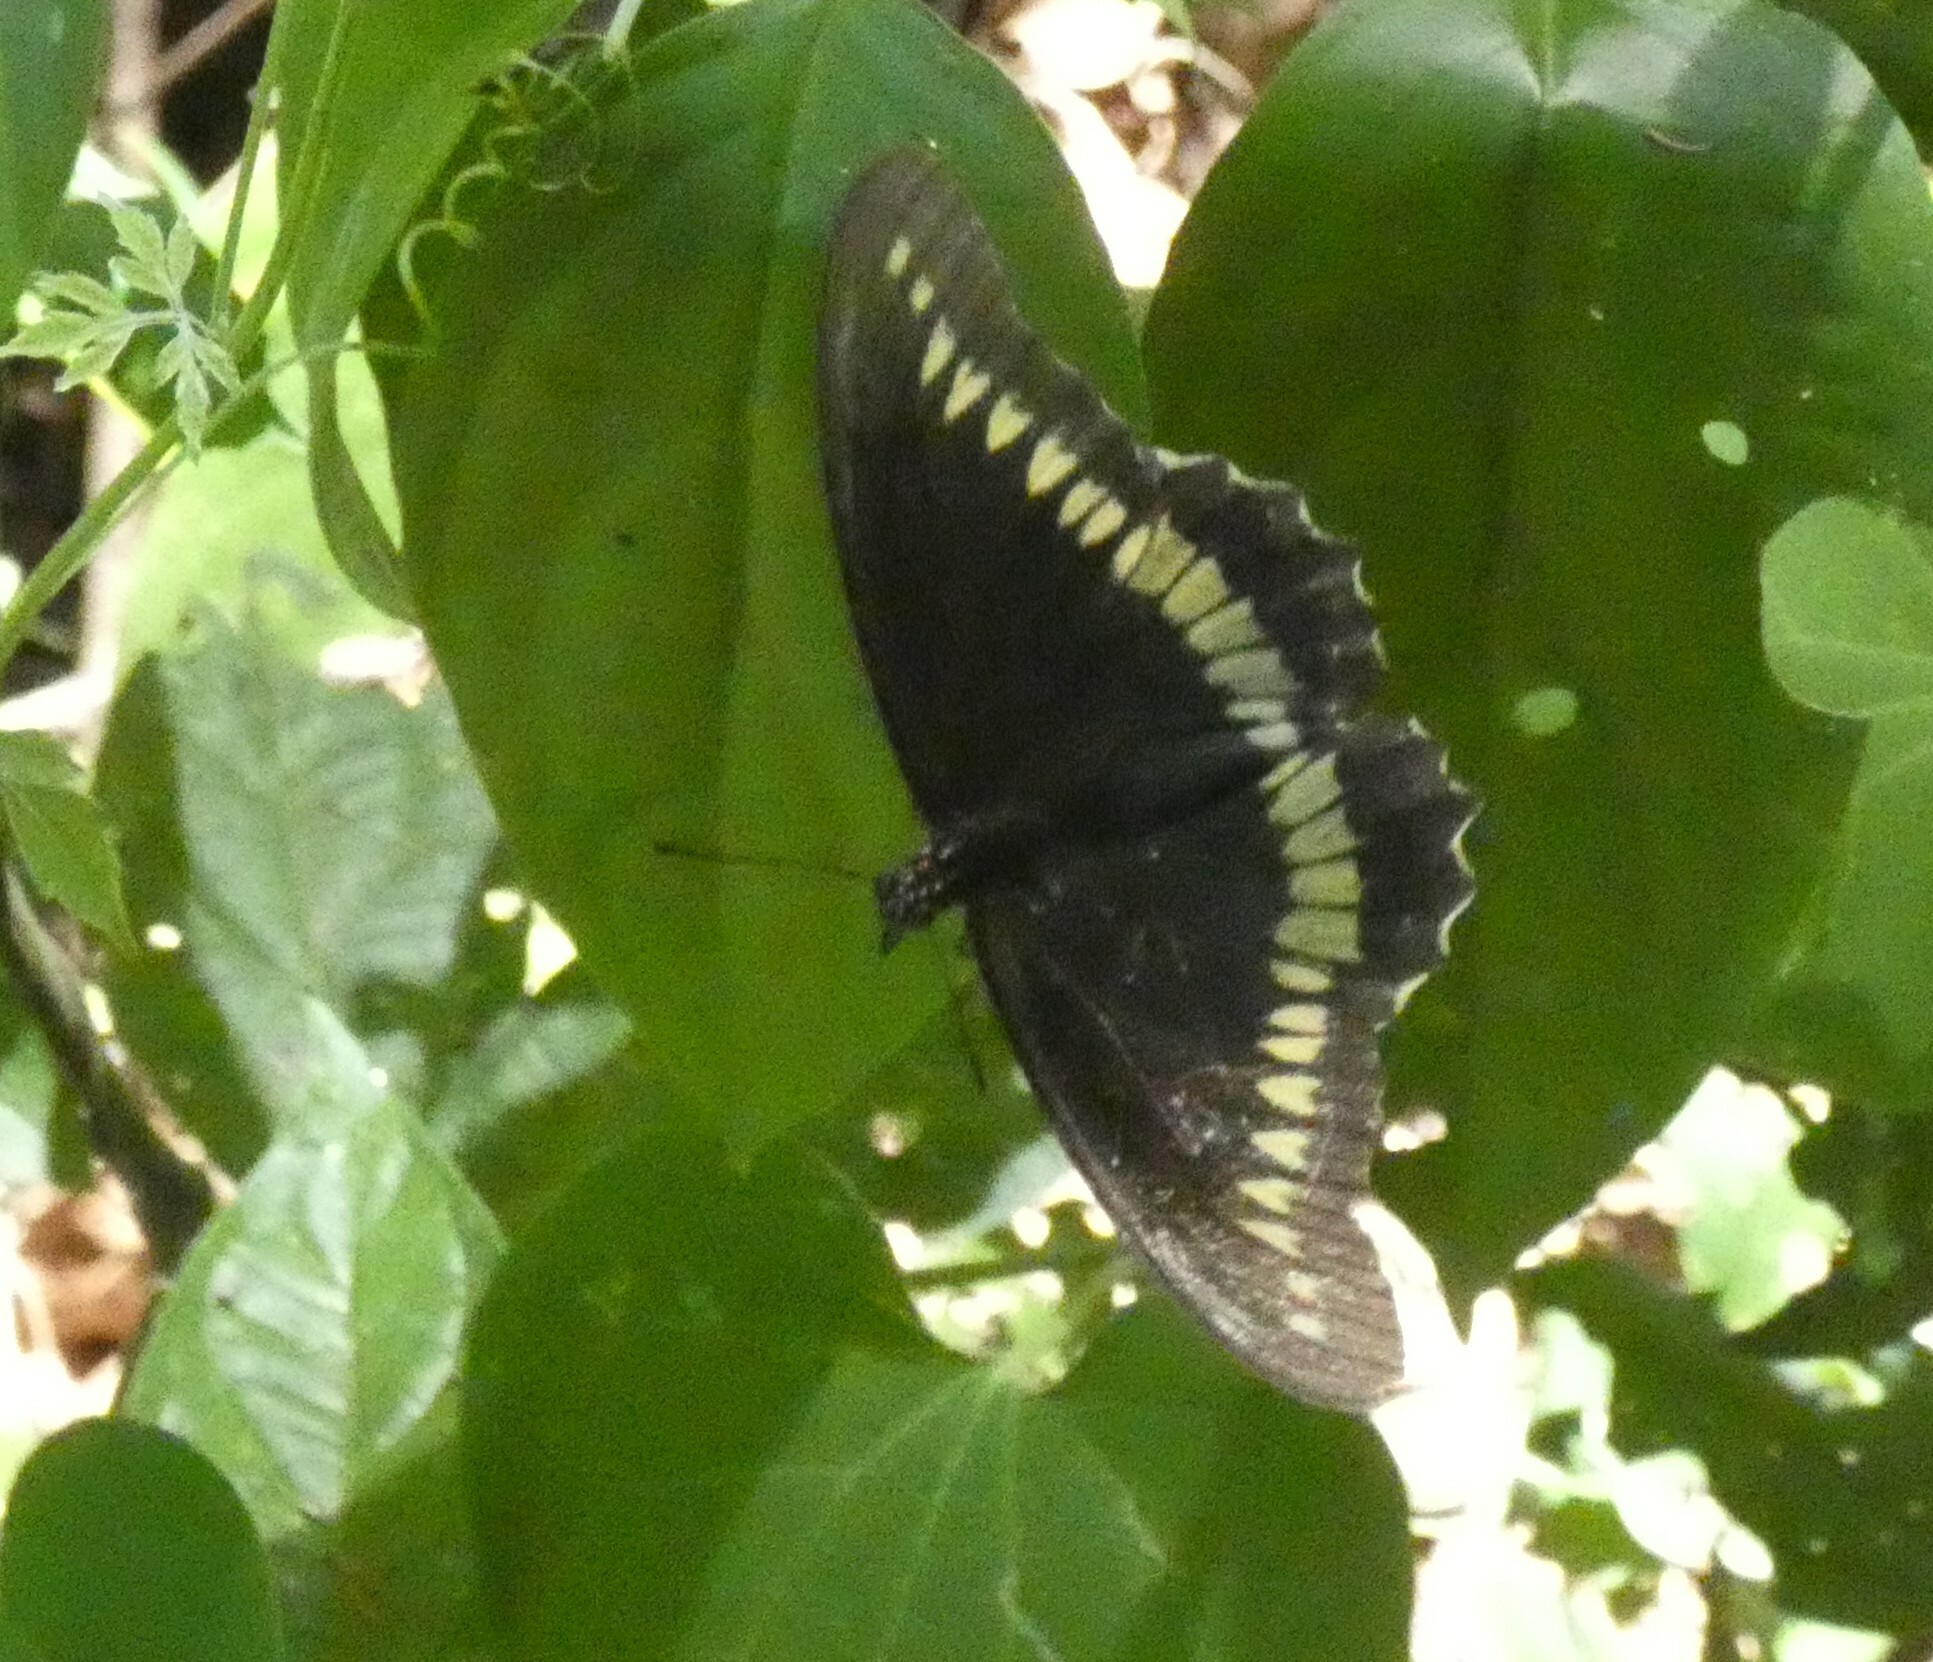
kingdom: Animalia
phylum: Arthropoda
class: Insecta
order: Lepidoptera
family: Papilionidae
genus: Battus
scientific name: Battus polydamas
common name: Polydamas swallowtail
